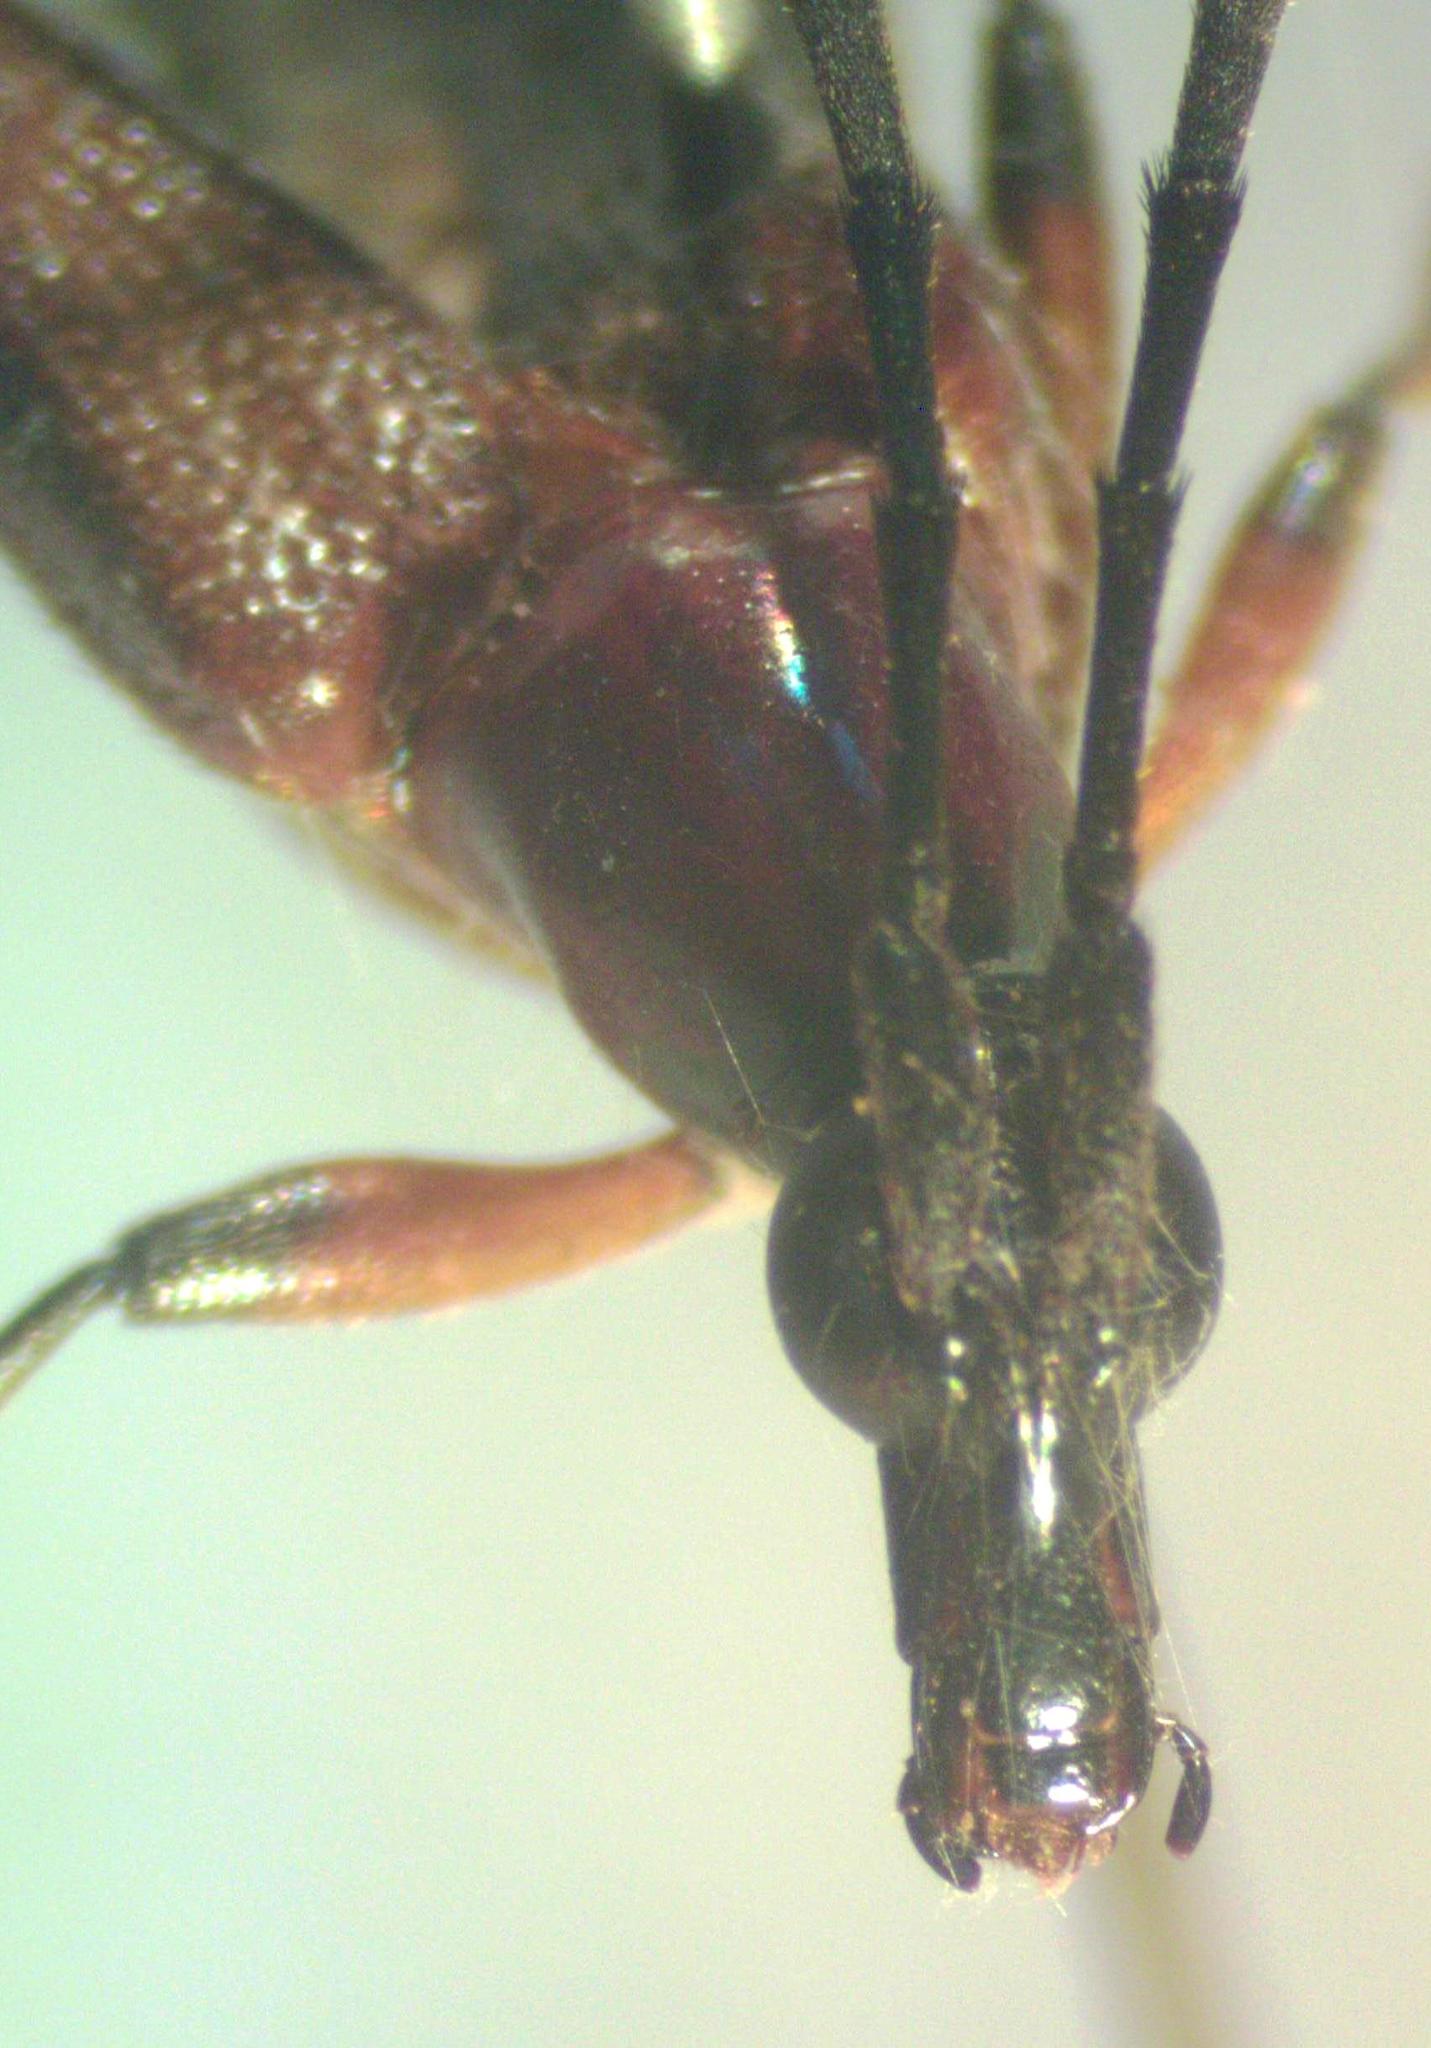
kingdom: Animalia
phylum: Arthropoda
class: Insecta
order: Coleoptera
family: Cerambycidae
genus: Cyphonotida
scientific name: Cyphonotida rostrata
